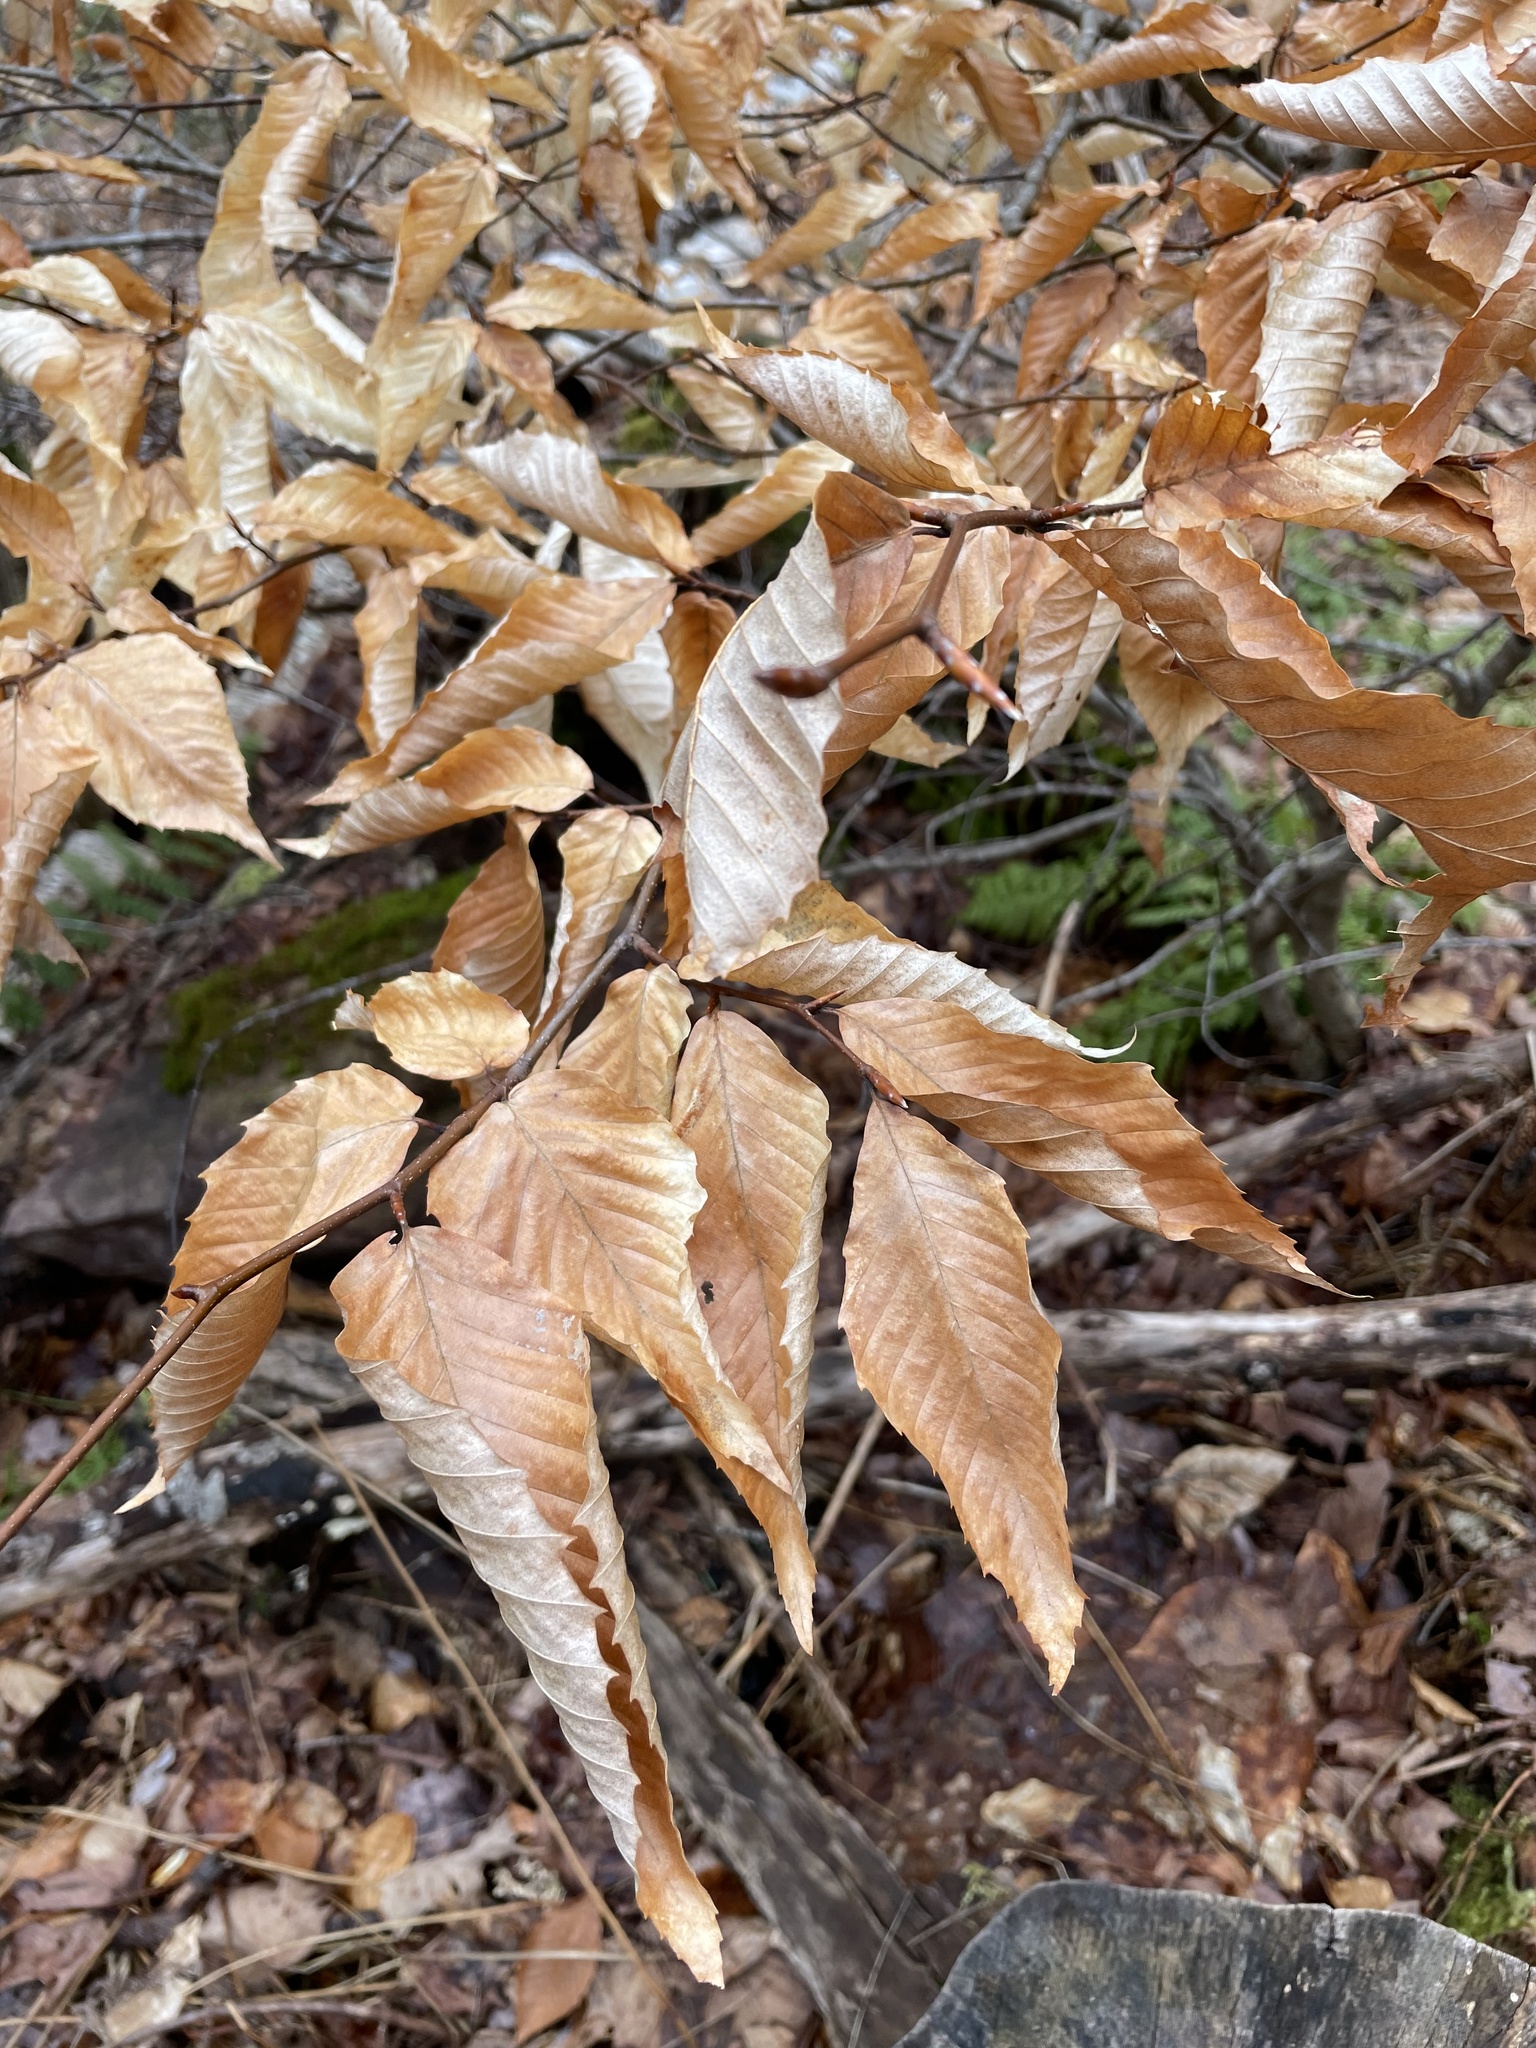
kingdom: Plantae
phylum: Tracheophyta
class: Magnoliopsida
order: Fagales
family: Fagaceae
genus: Fagus
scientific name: Fagus grandifolia
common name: American beech
